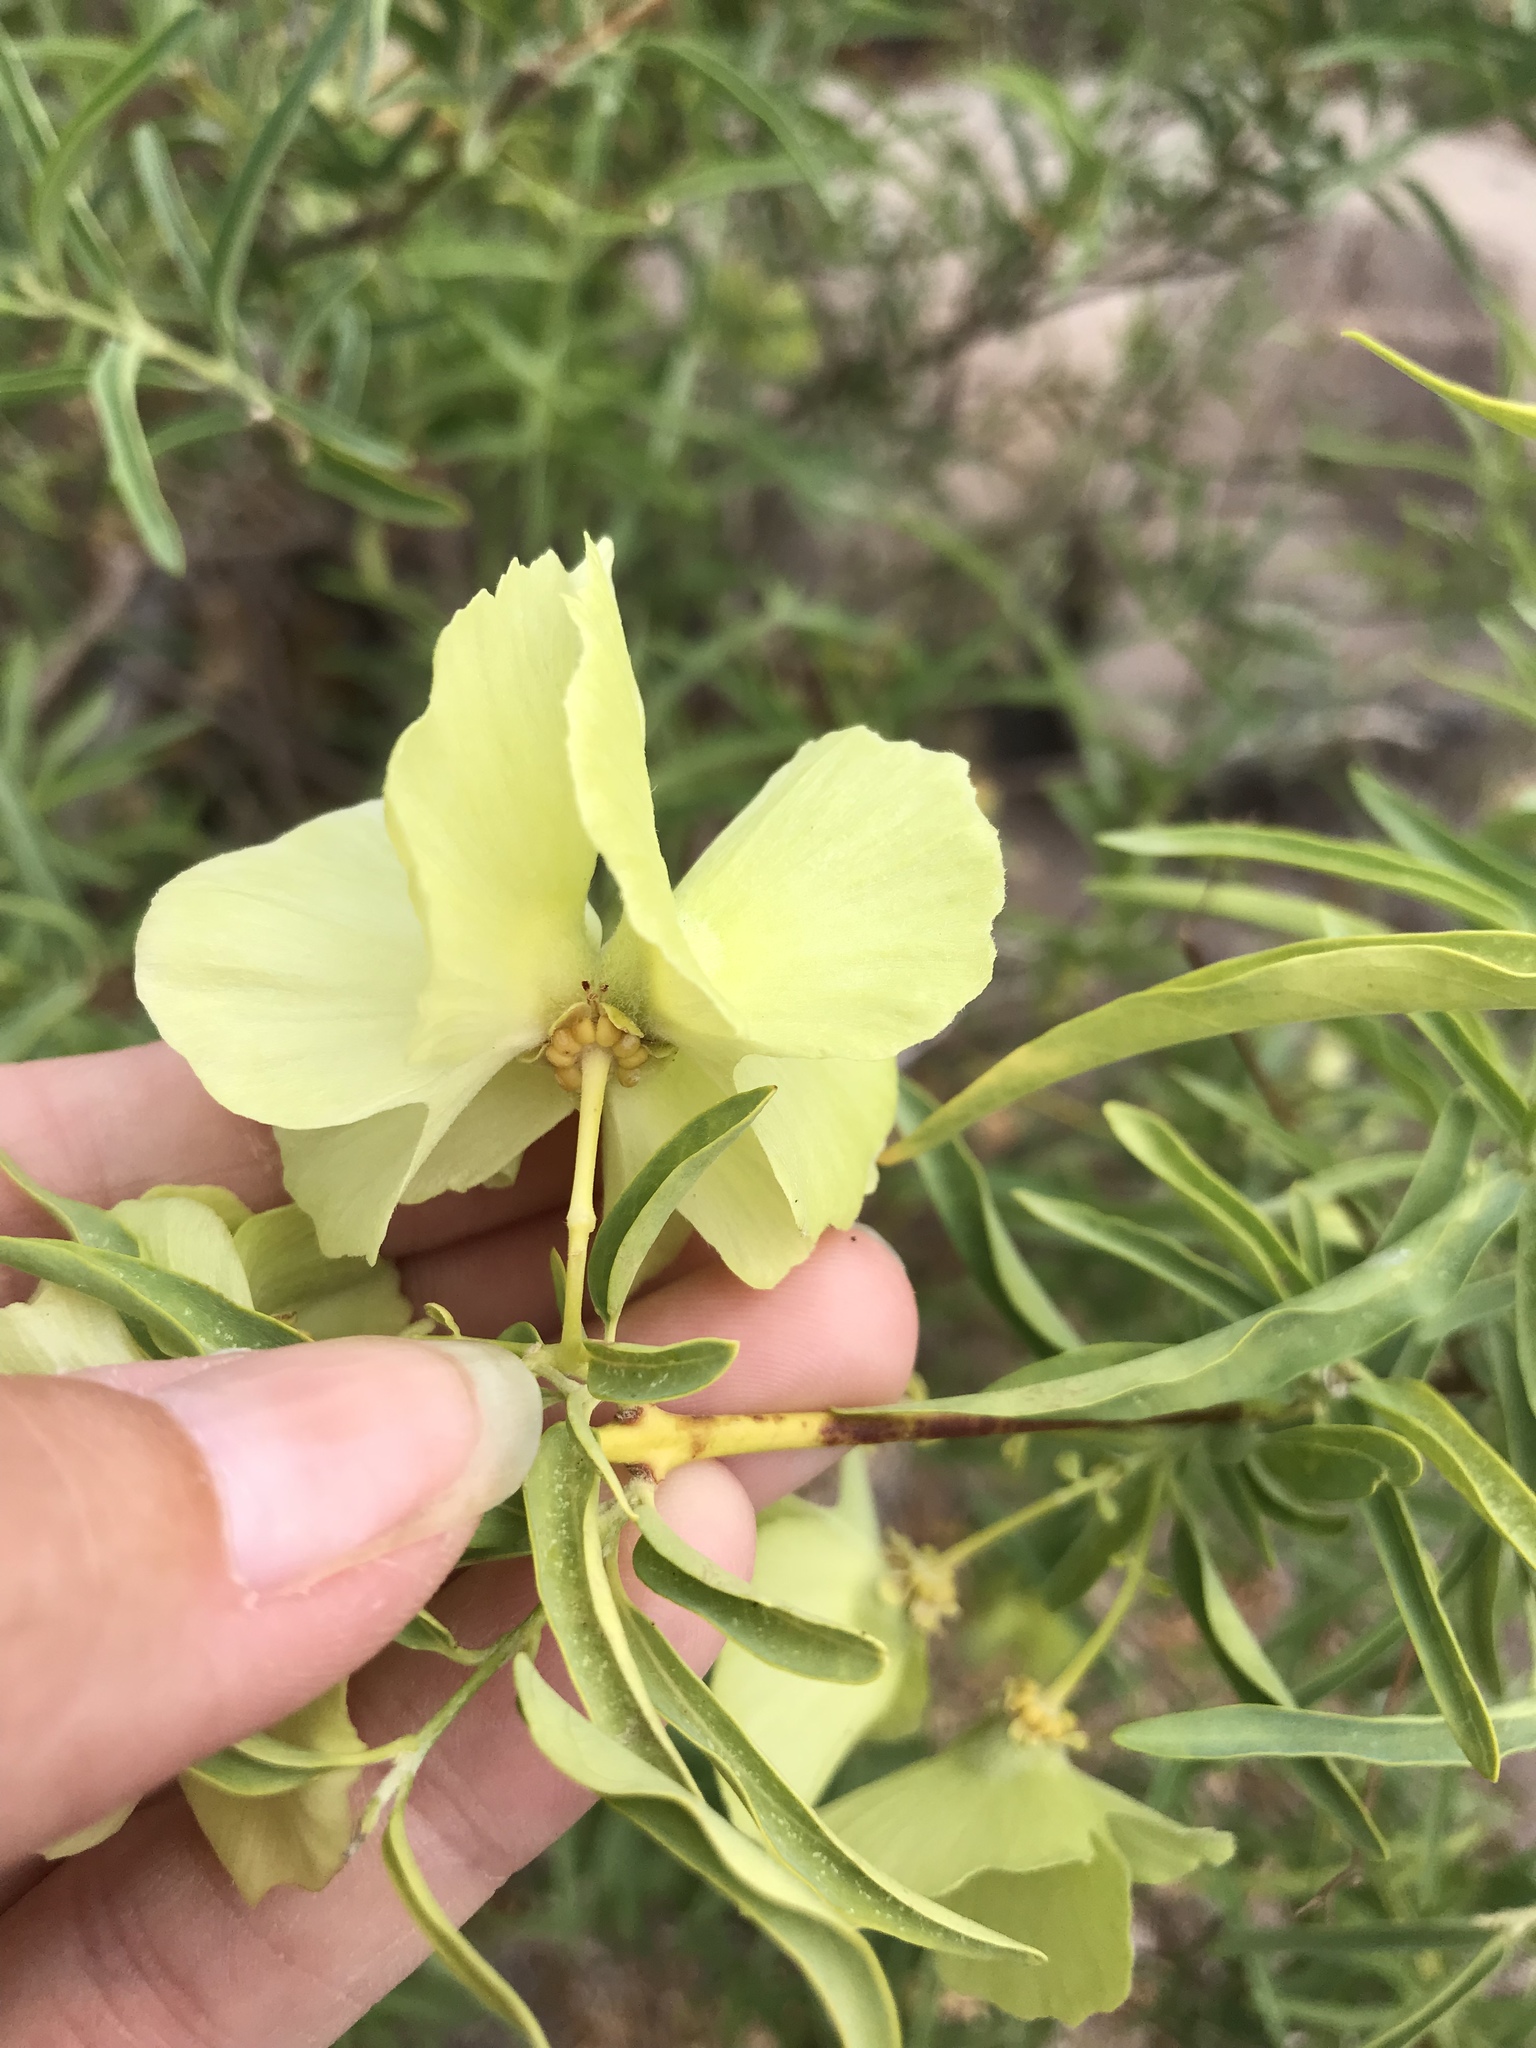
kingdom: Plantae
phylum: Tracheophyta
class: Magnoliopsida
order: Malpighiales
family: Malpighiaceae
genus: Callaeum
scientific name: Callaeum macropterum
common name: Mexican butterfly-vine
